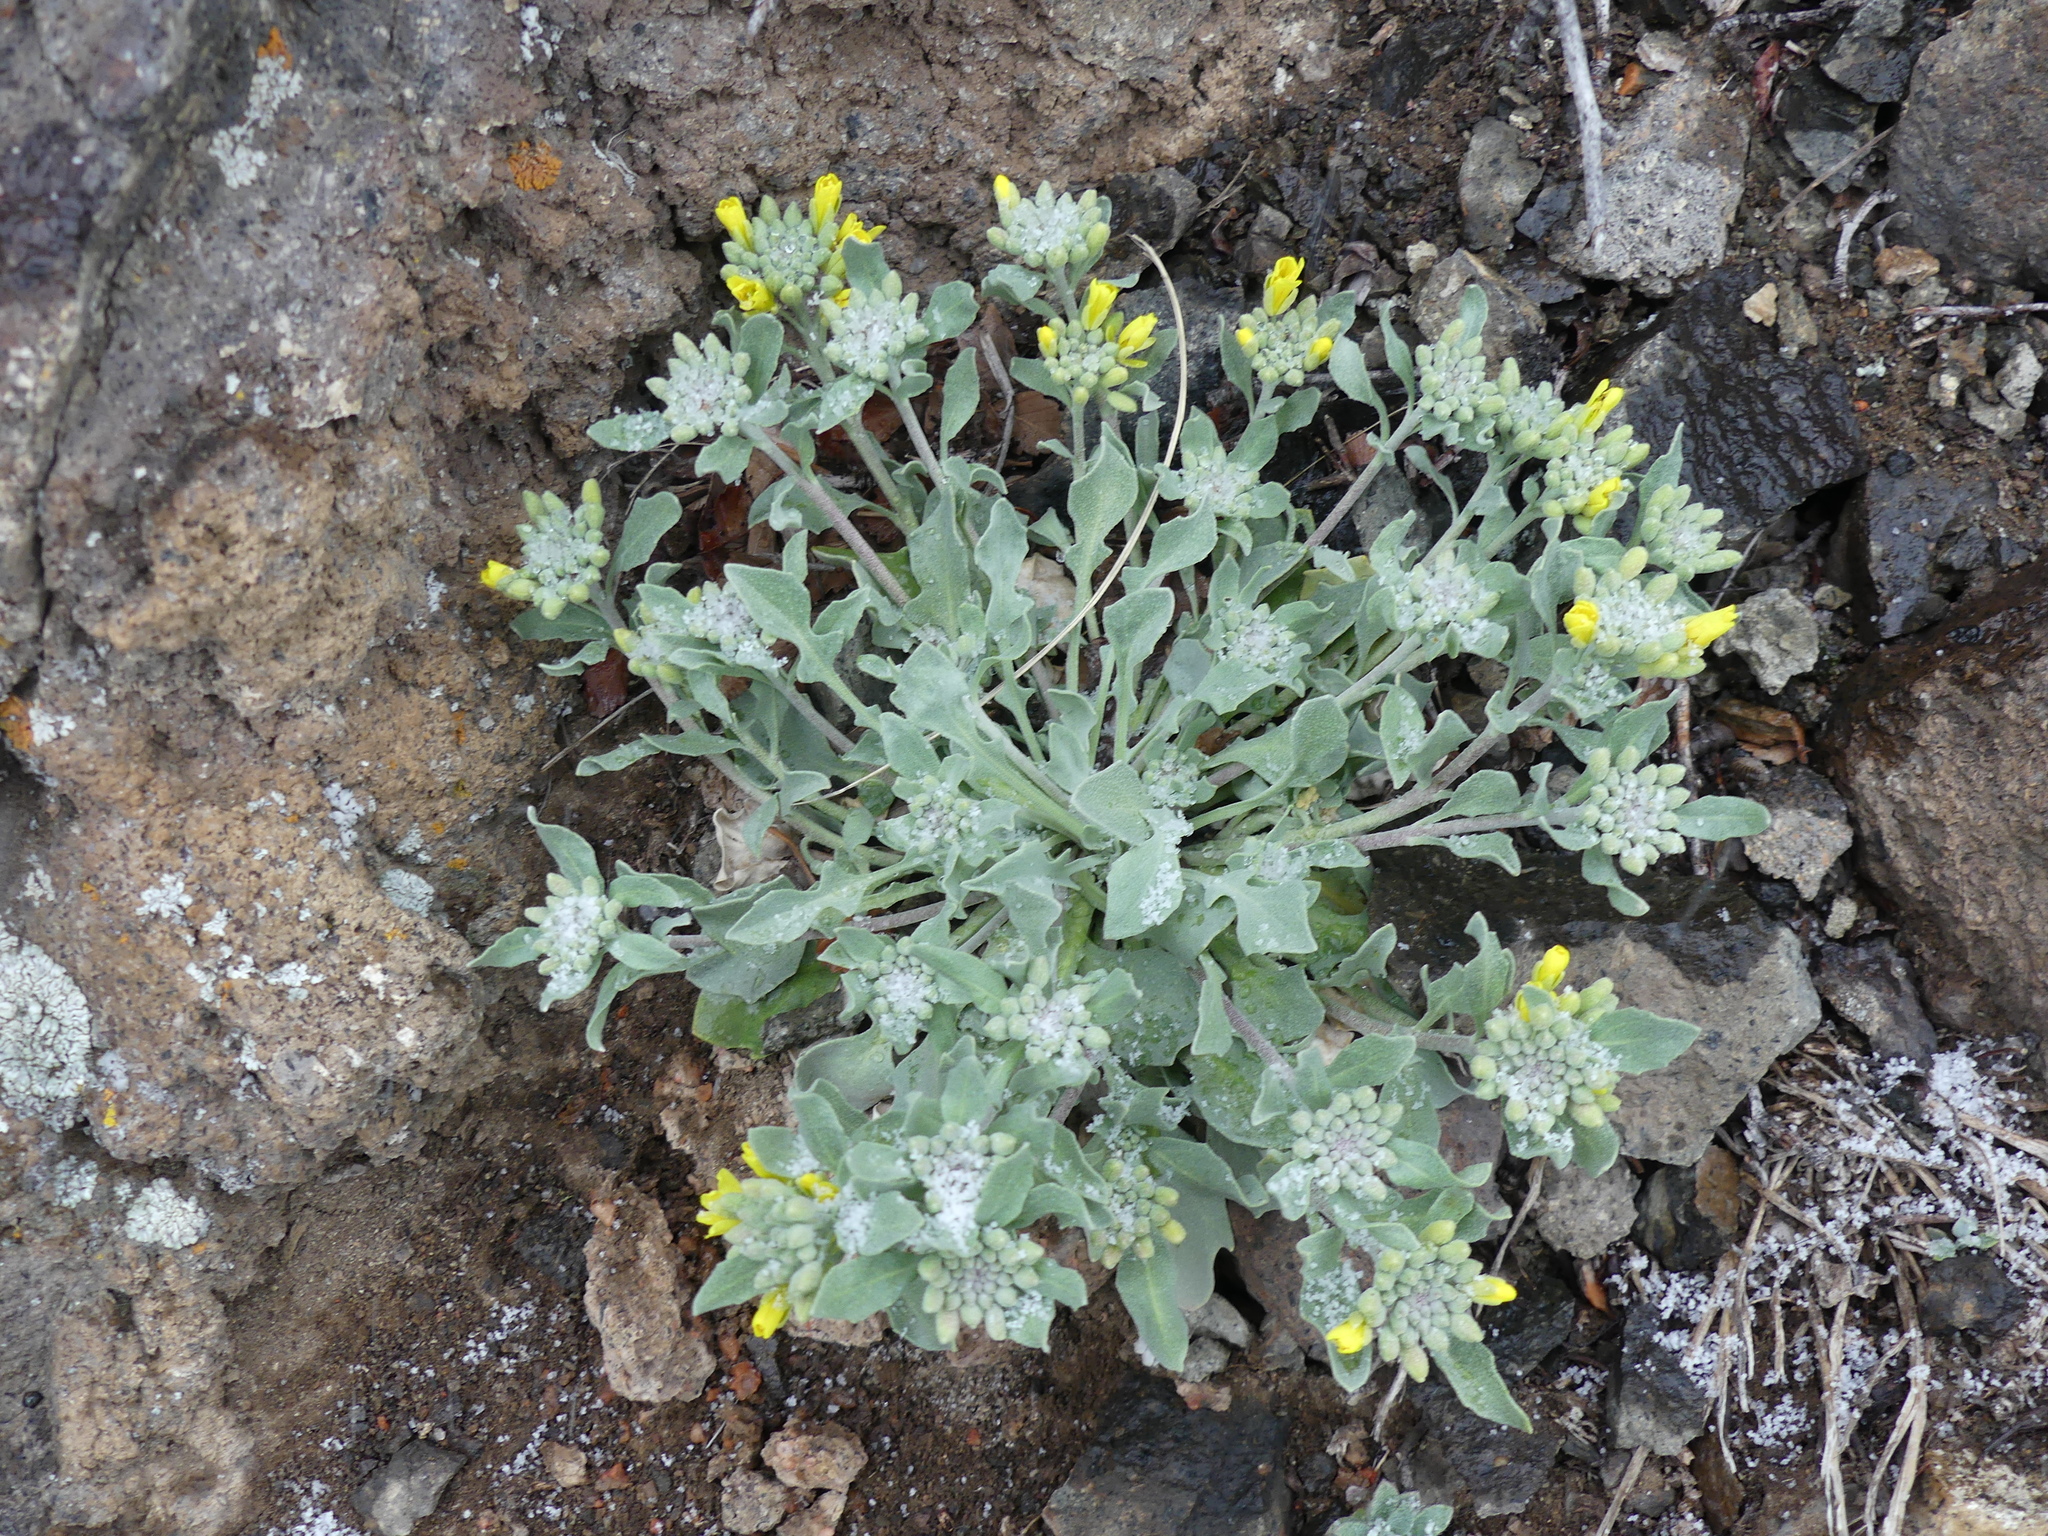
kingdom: Plantae
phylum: Tracheophyta
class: Magnoliopsida
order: Brassicales
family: Brassicaceae
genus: Physaria
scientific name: Physaria vitulifera
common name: Roundtrip twinpod
